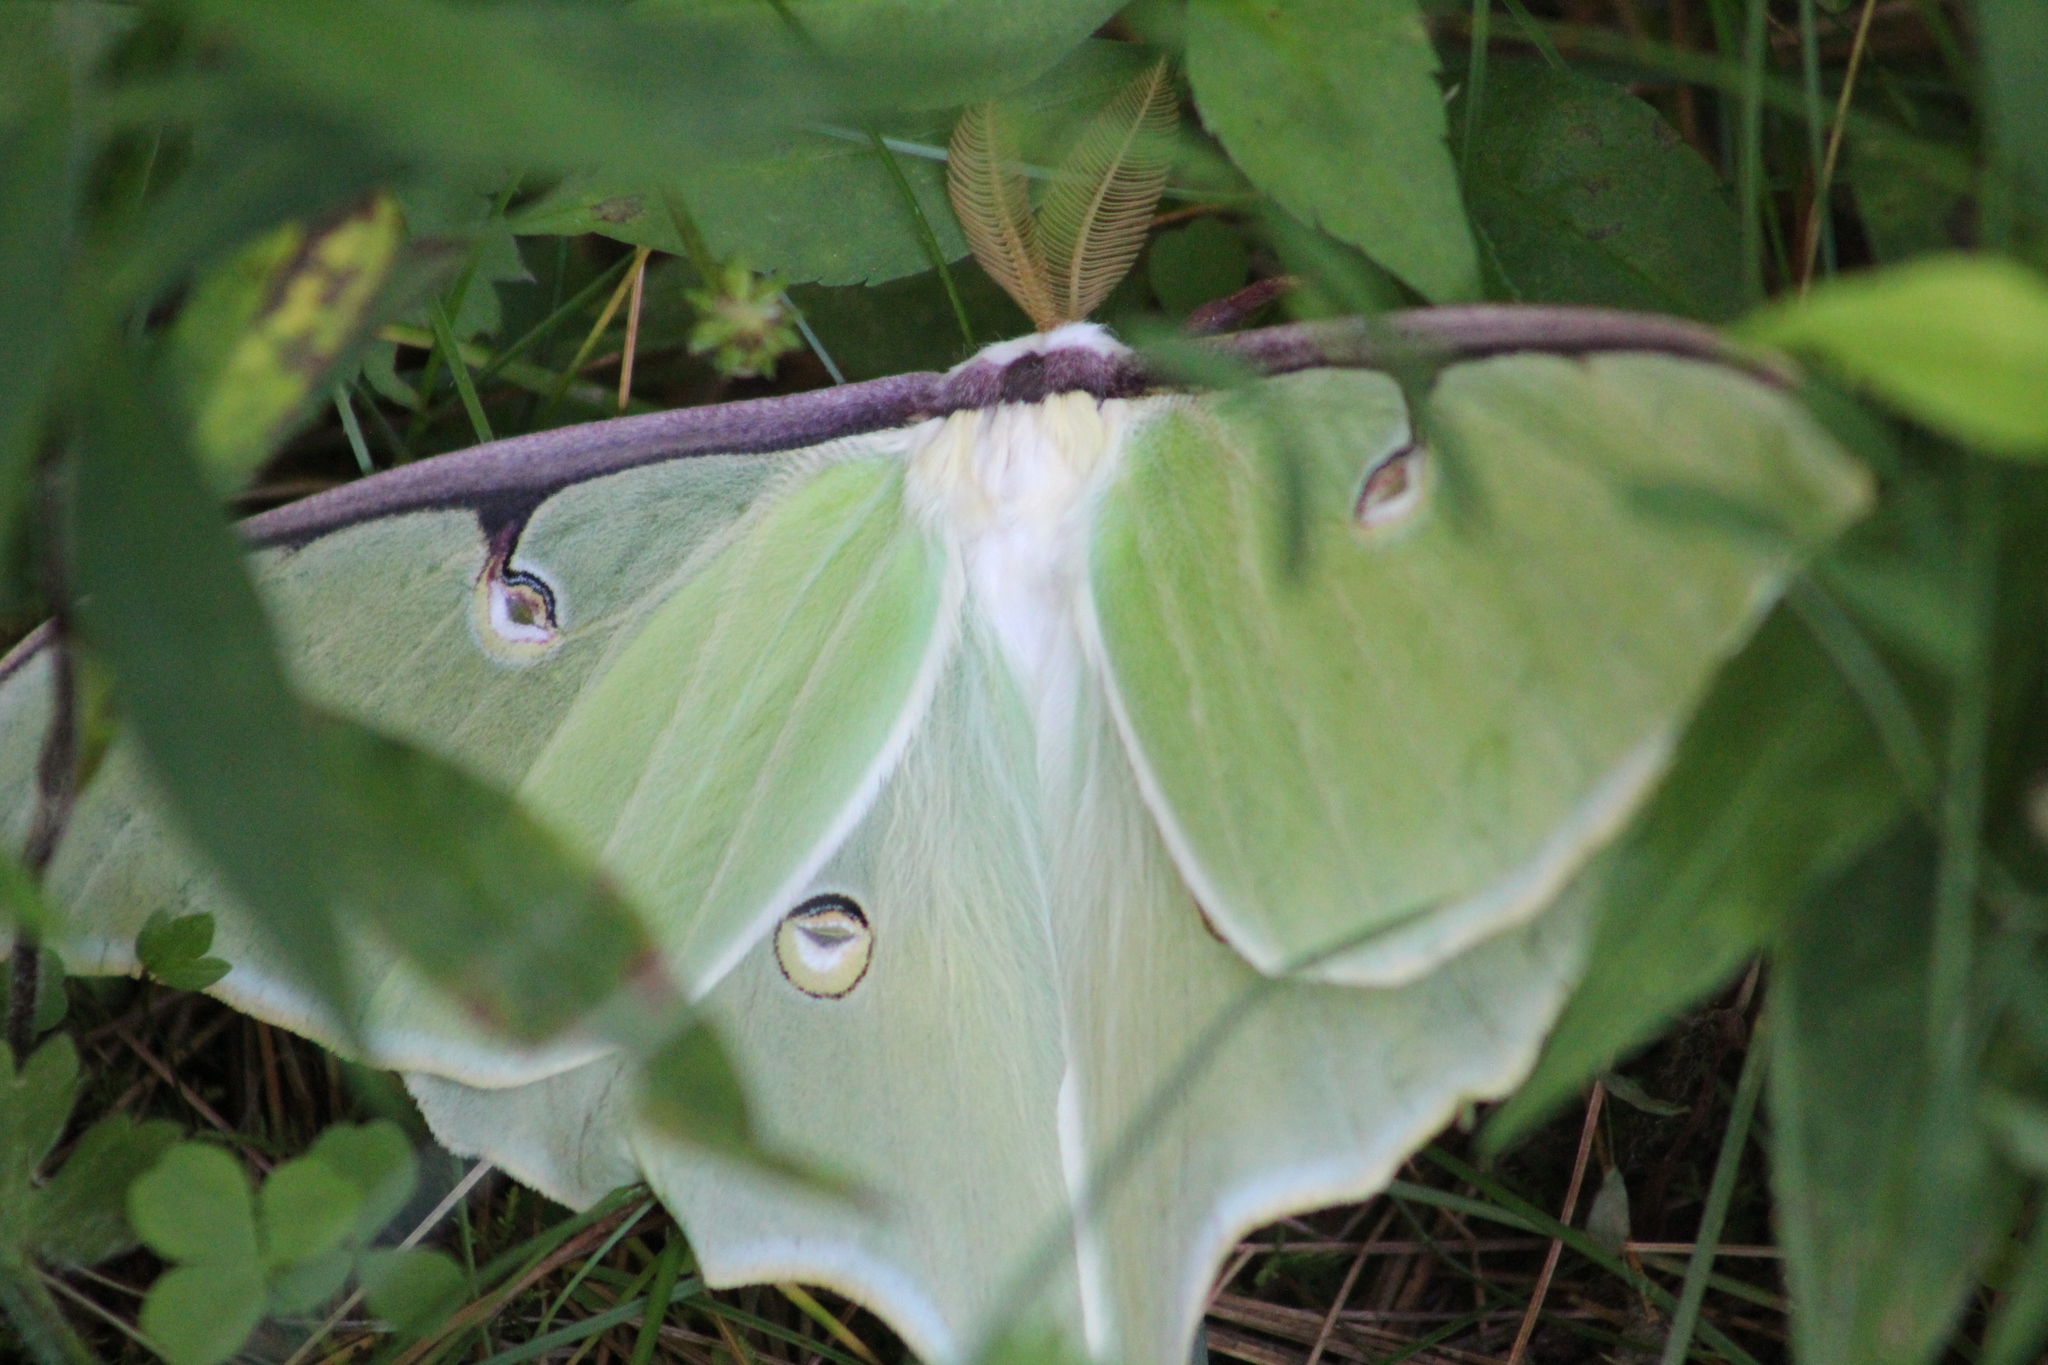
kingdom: Animalia
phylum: Arthropoda
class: Insecta
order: Lepidoptera
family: Saturniidae
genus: Actias
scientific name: Actias luna
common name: Luna moth
